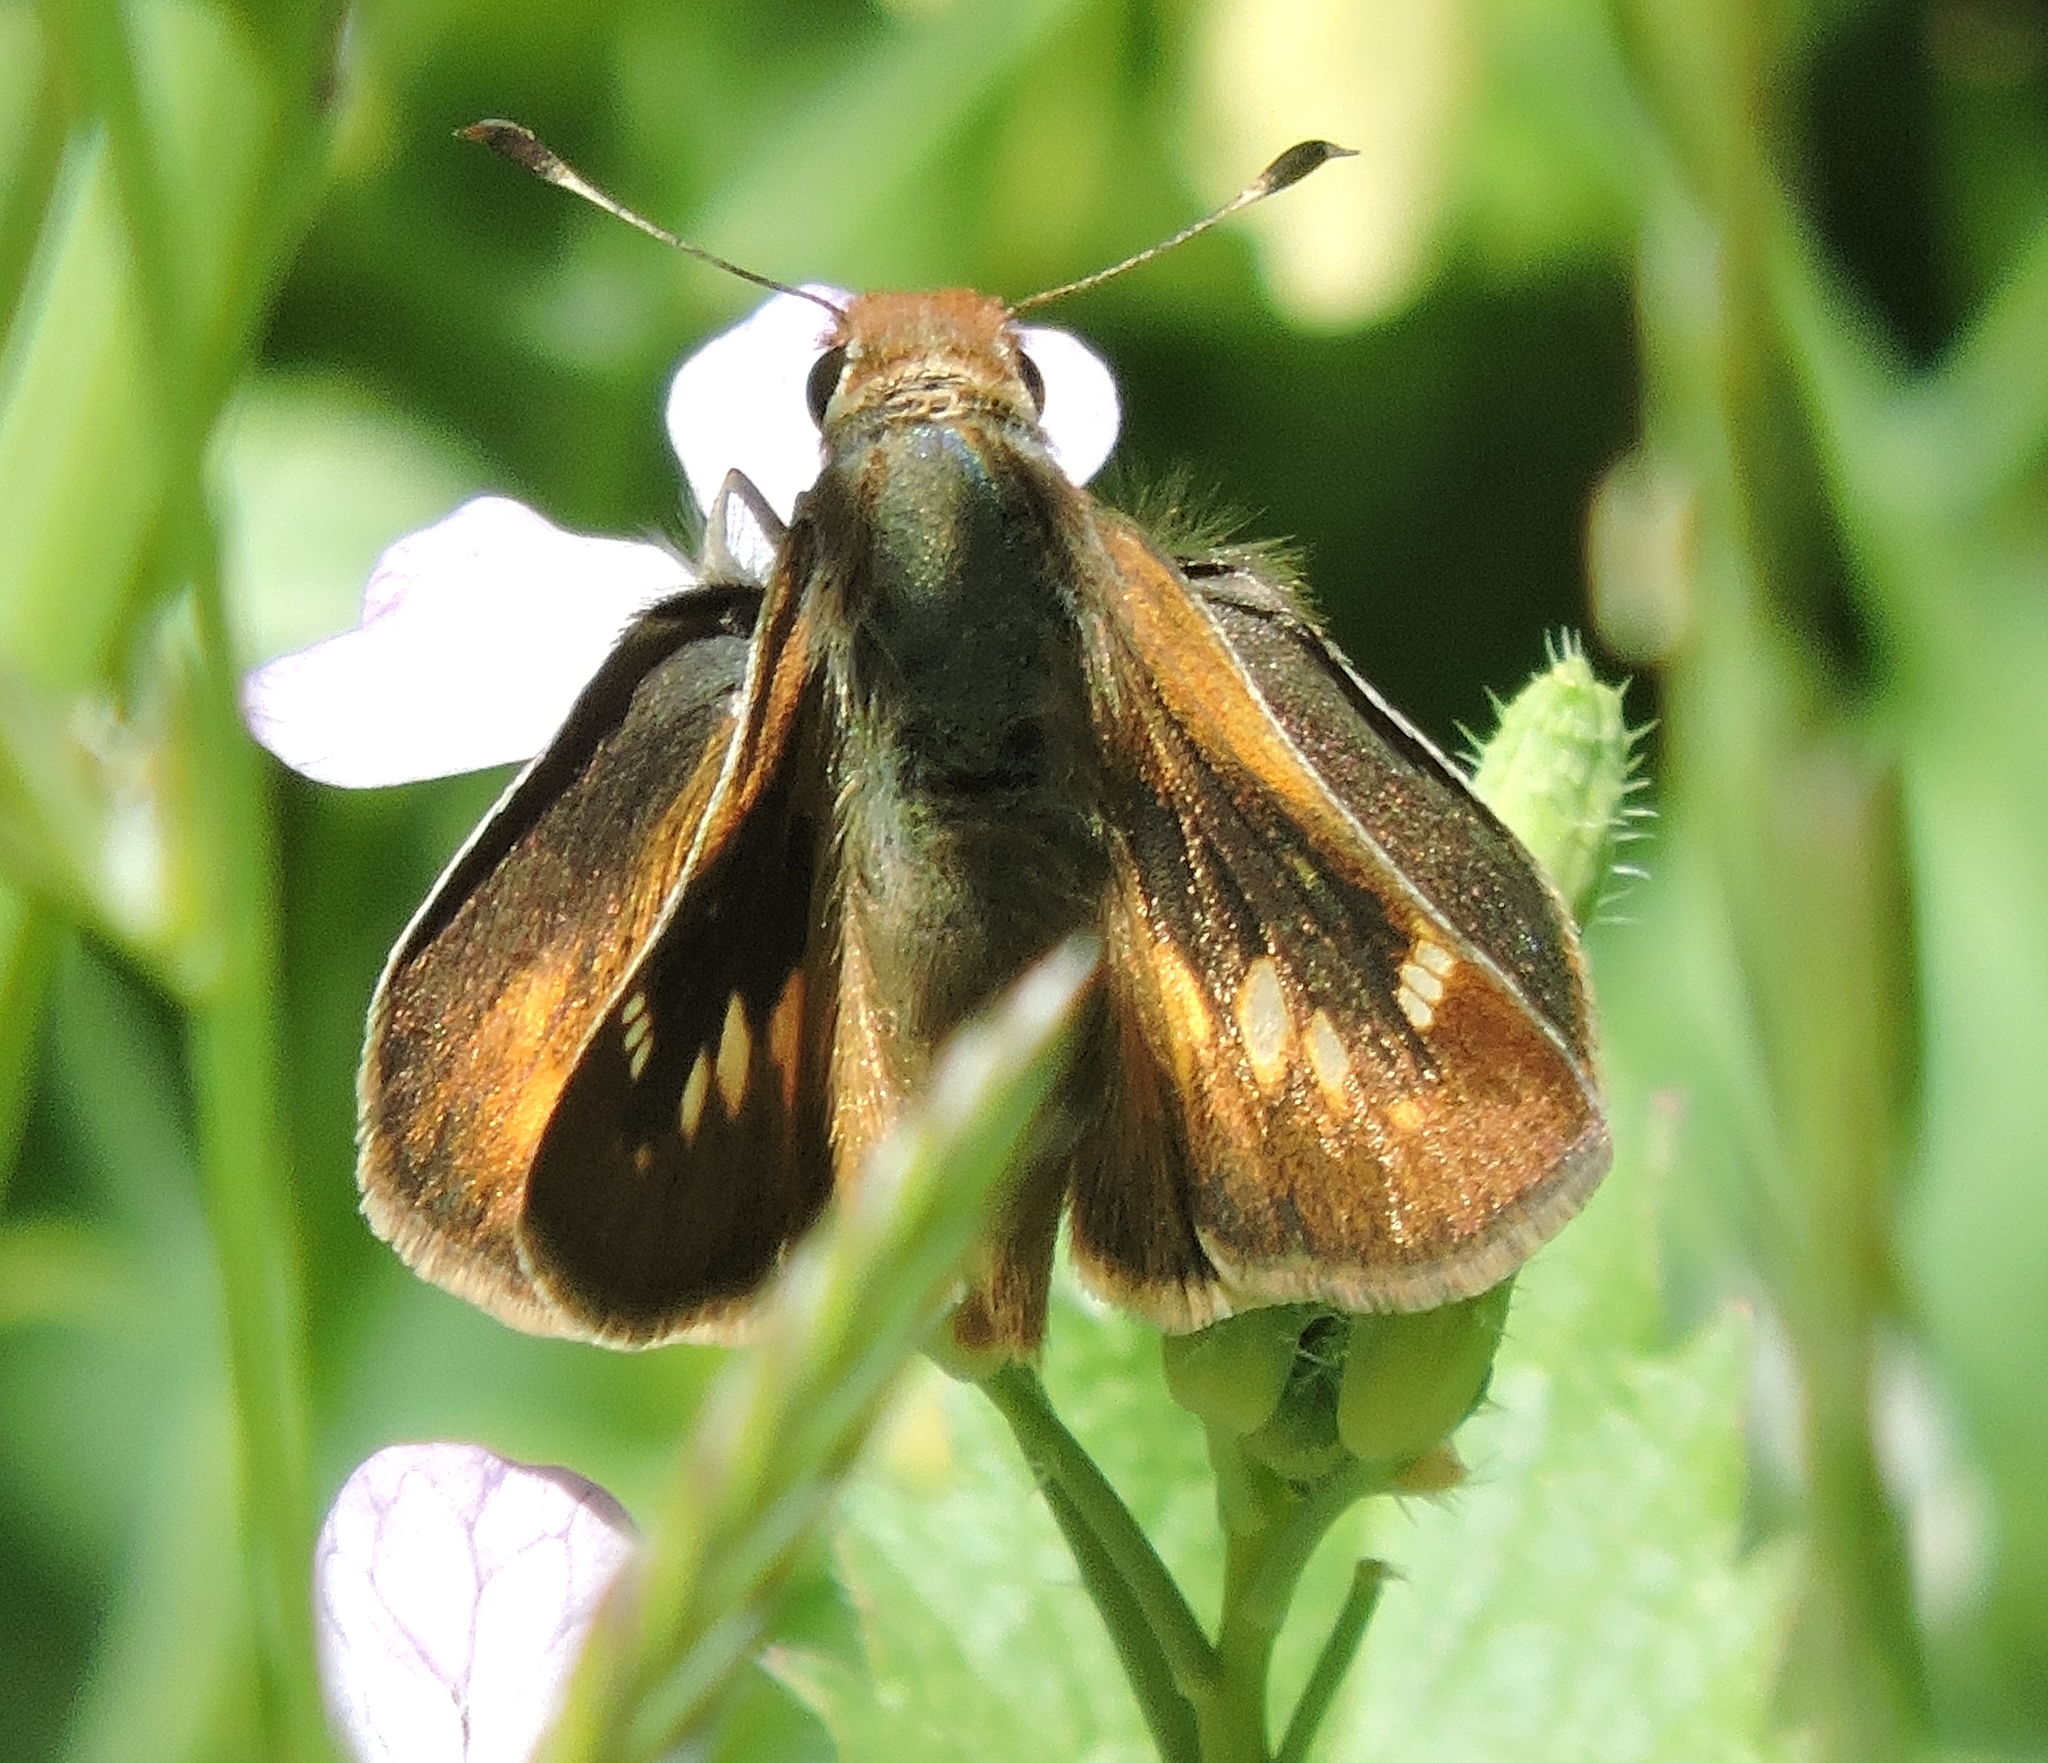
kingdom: Animalia
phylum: Arthropoda
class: Insecta
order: Lepidoptera
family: Hesperiidae
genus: Lon
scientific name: Lon melane
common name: Umber skipper
